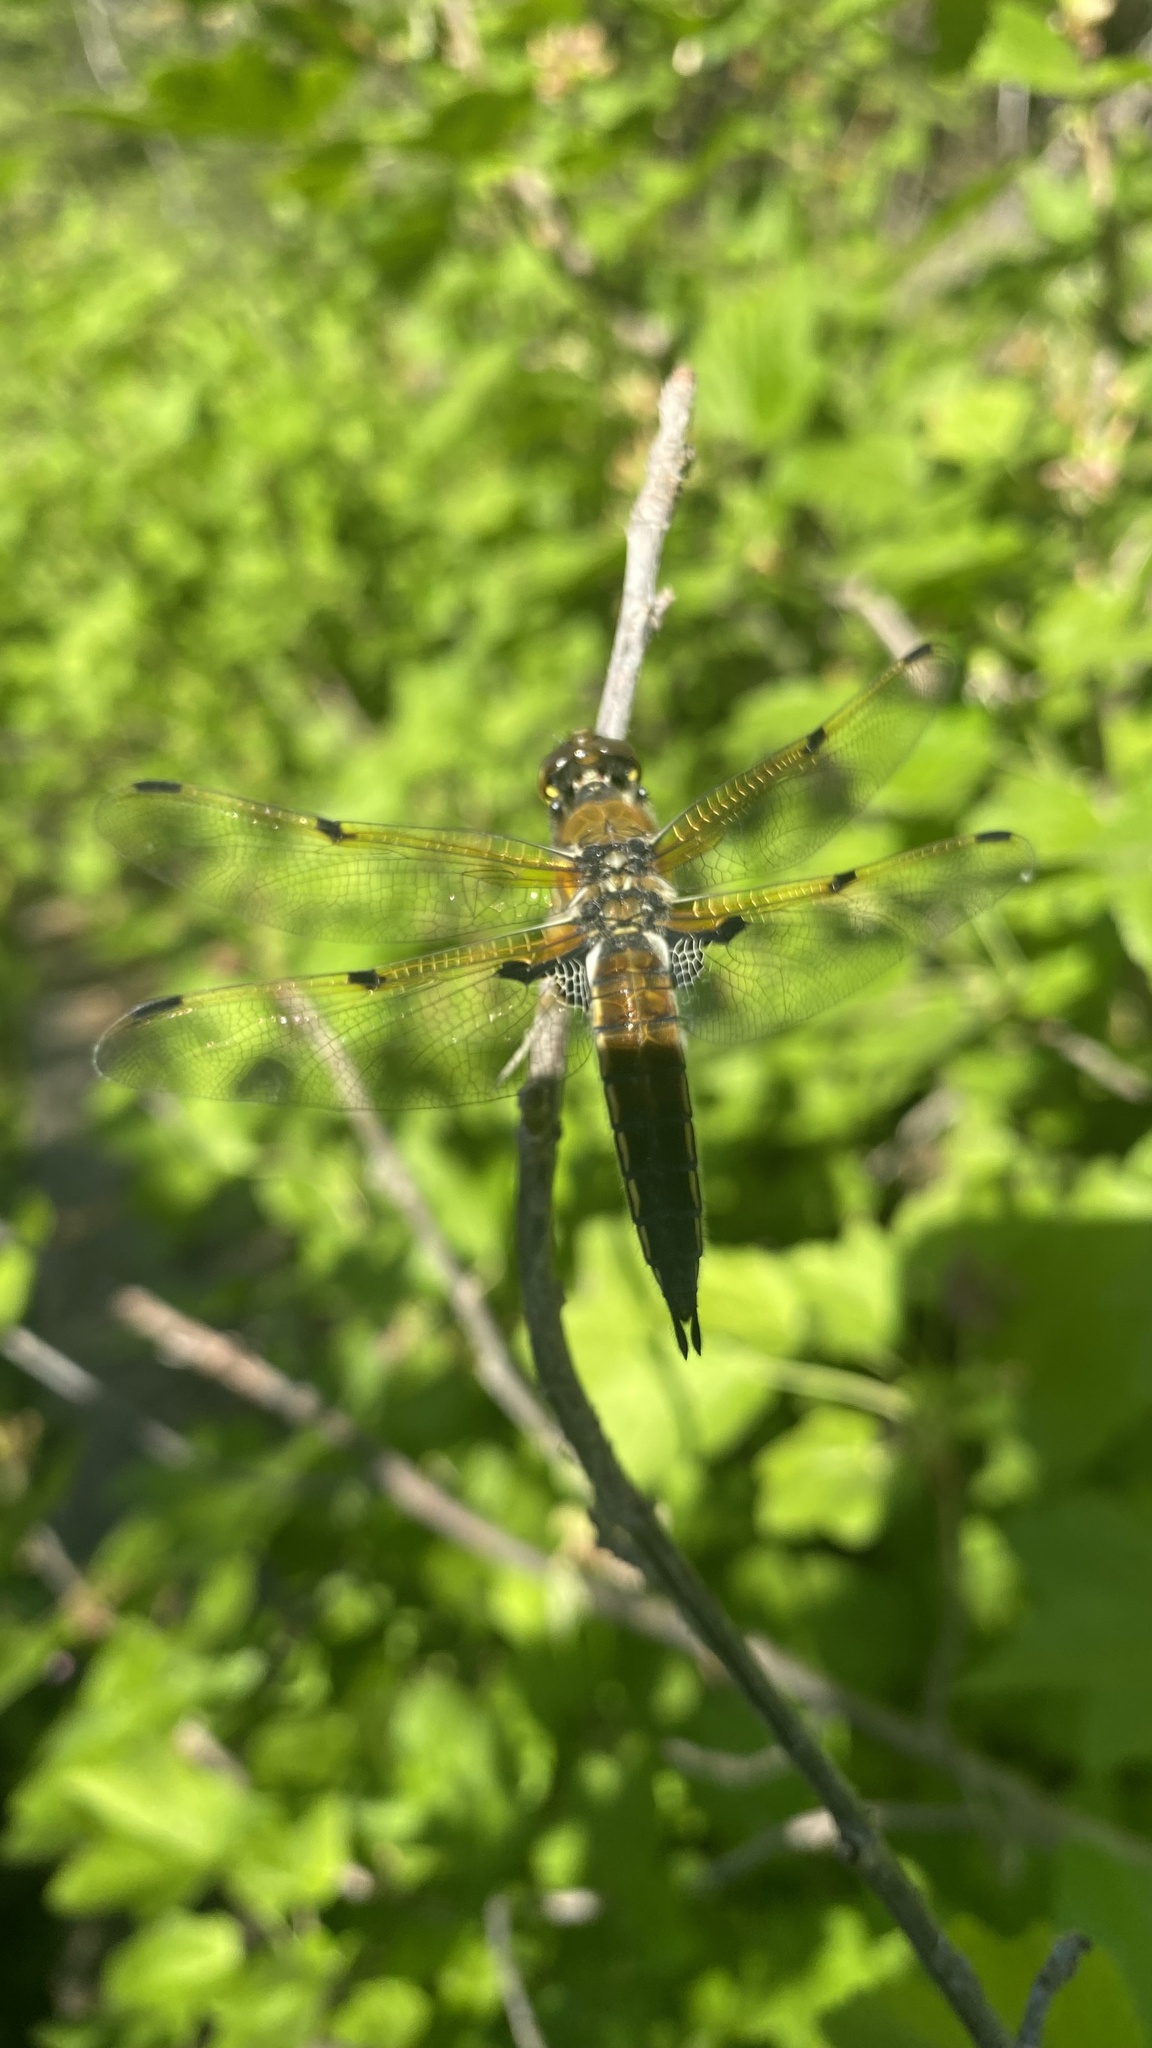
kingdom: Animalia
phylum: Arthropoda
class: Insecta
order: Odonata
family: Libellulidae
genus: Libellula
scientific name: Libellula quadrimaculata
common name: Four-spotted chaser
